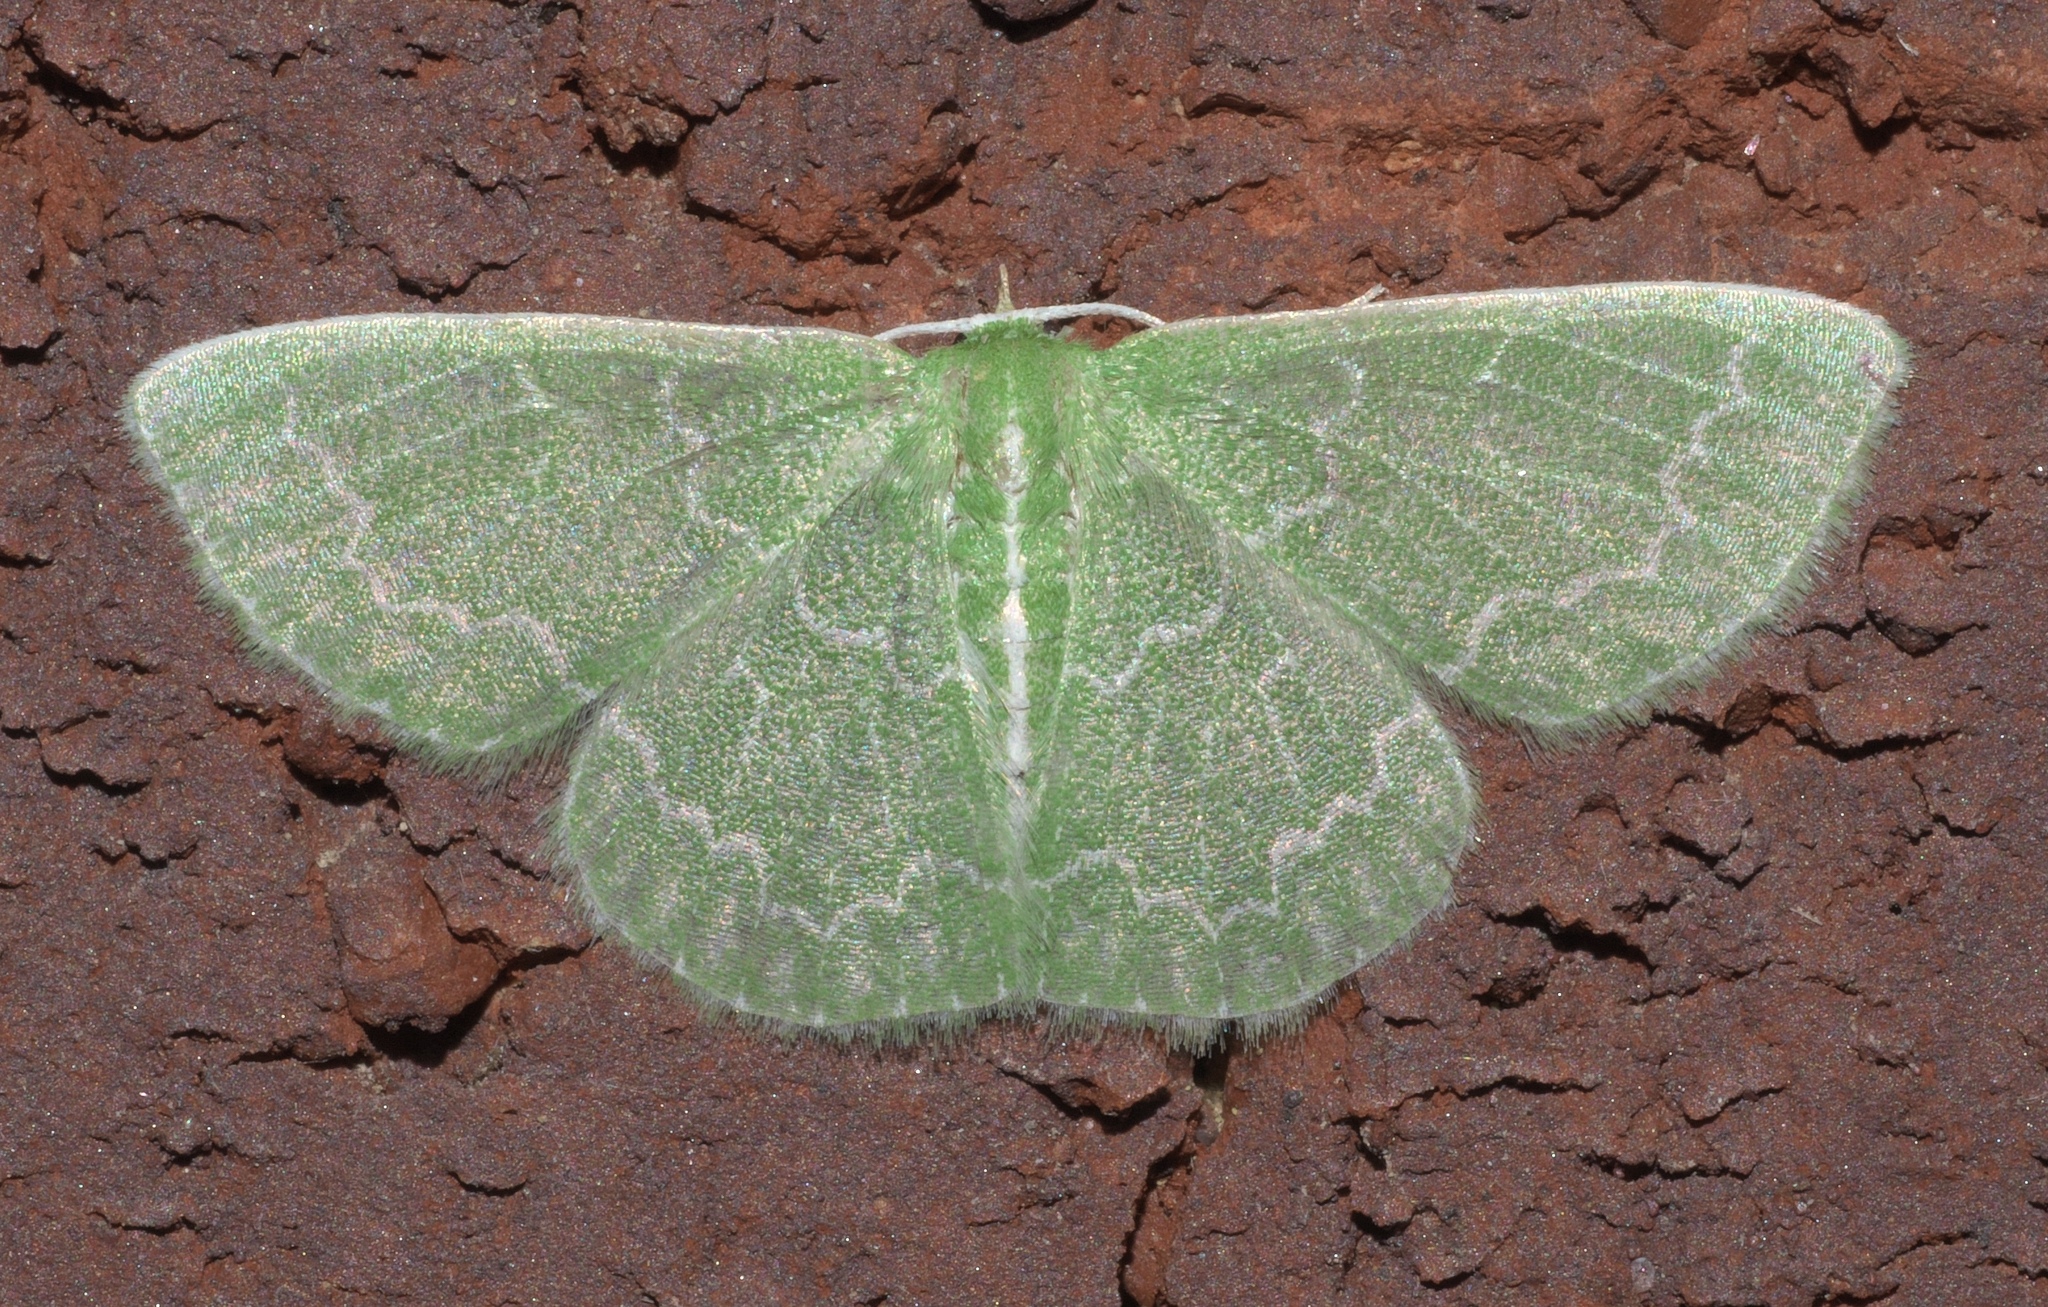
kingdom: Animalia
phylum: Arthropoda
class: Insecta
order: Lepidoptera
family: Geometridae
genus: Synchlora
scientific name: Synchlora frondaria
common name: Southern emerald
